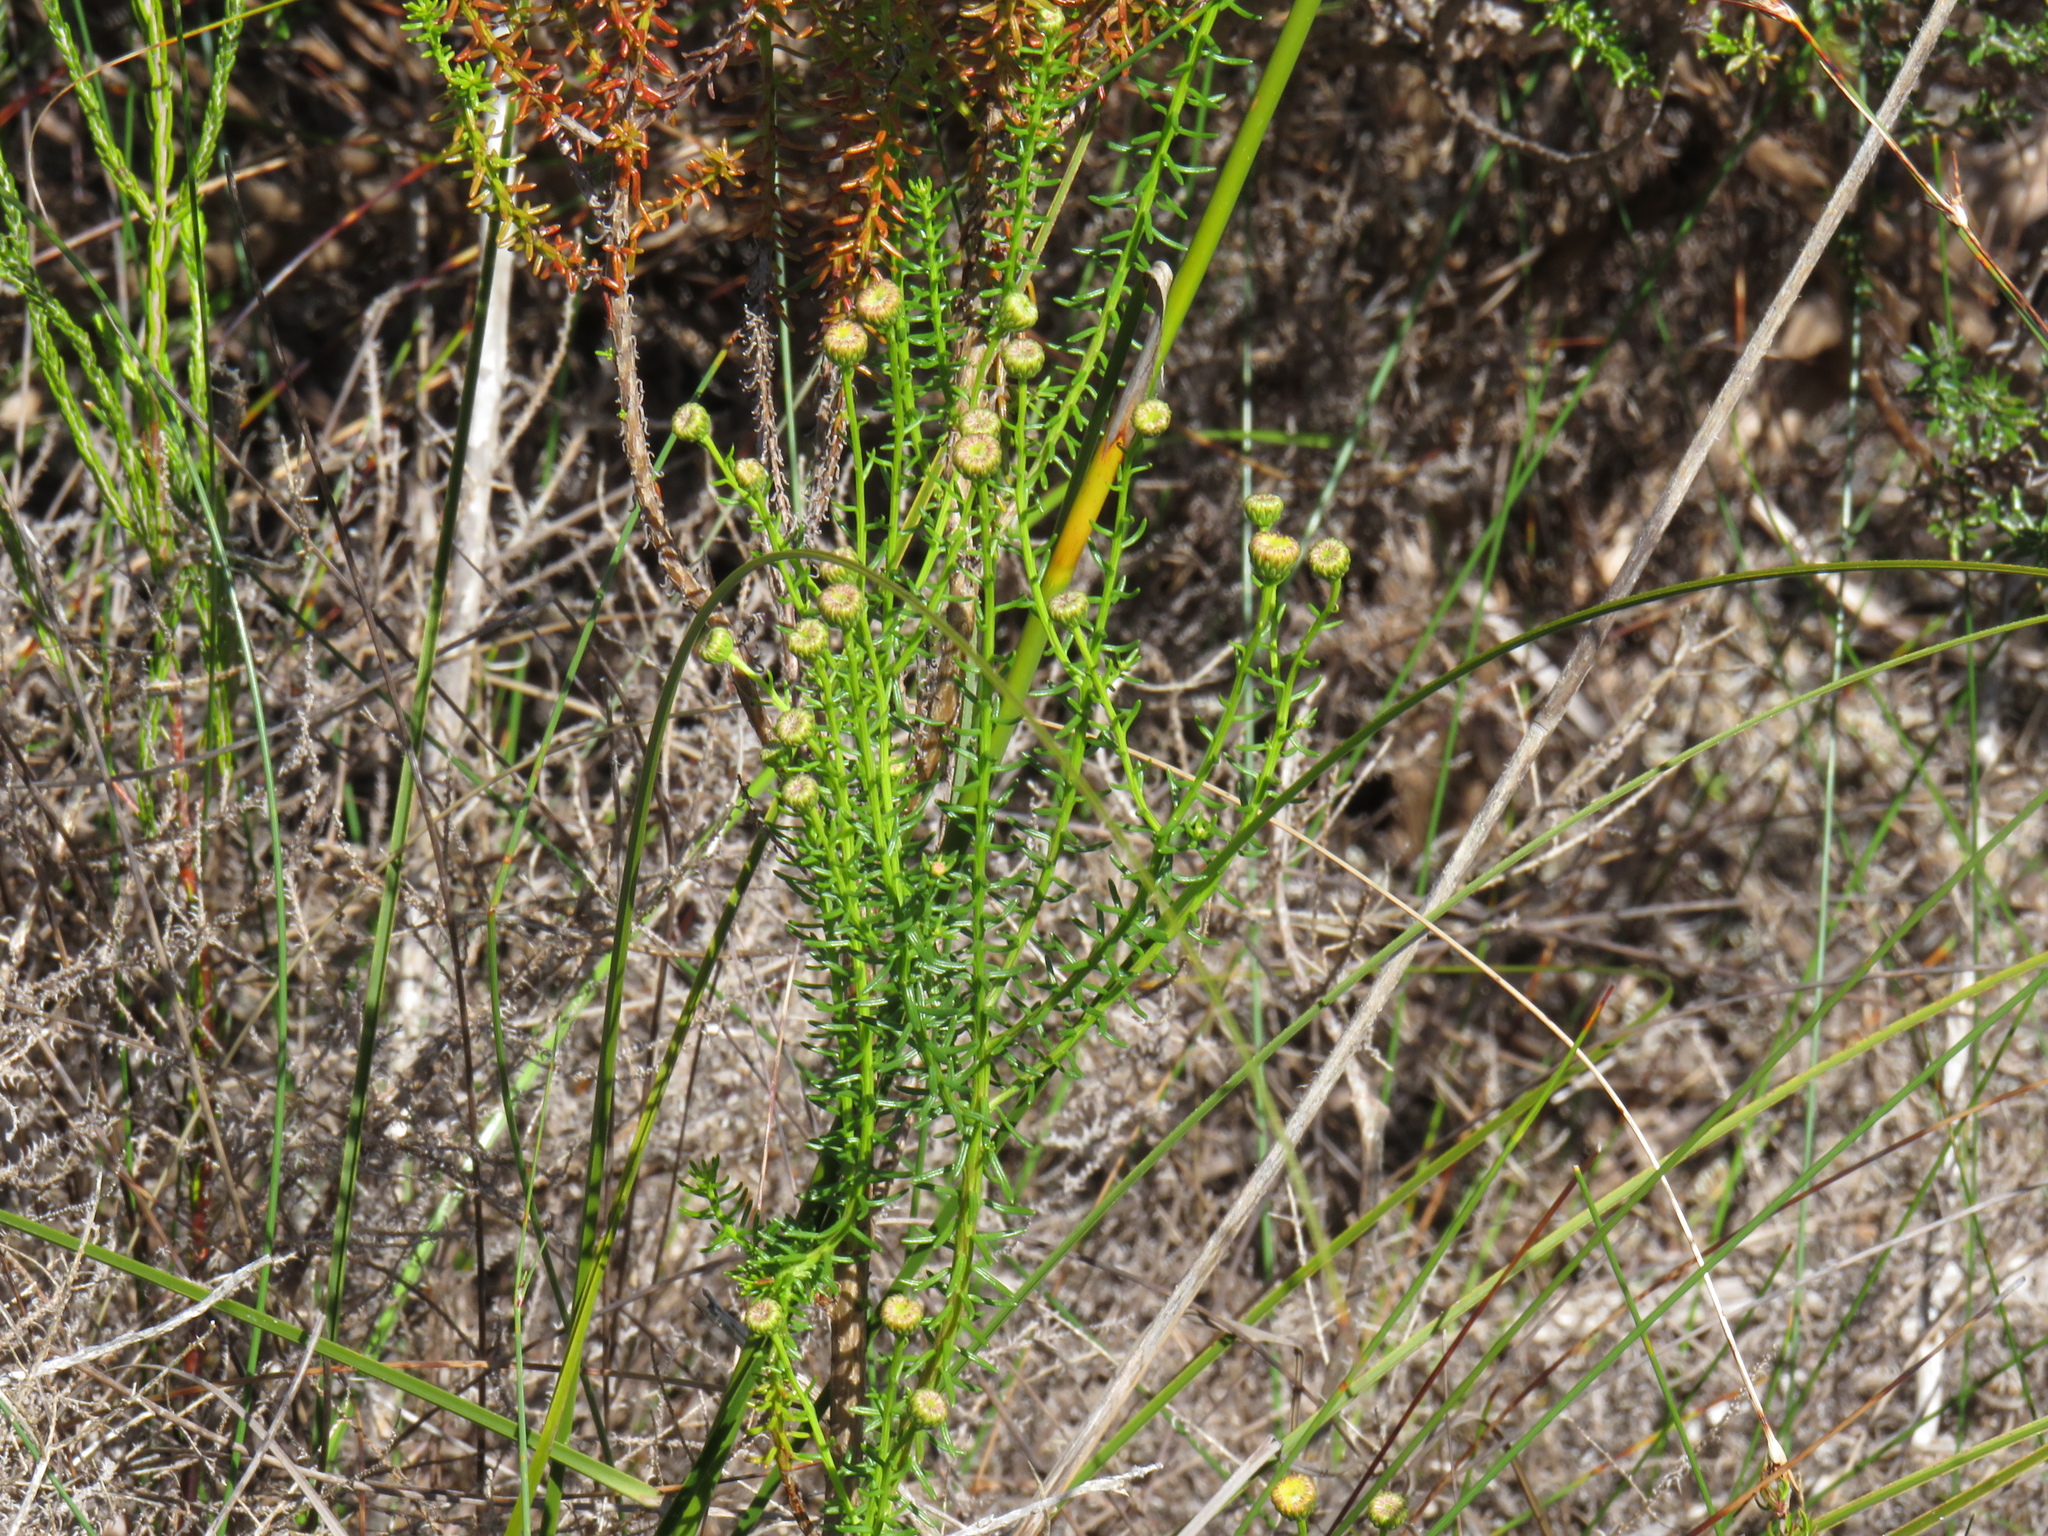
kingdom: Plantae
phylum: Tracheophyta
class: Magnoliopsida
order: Asterales
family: Asteraceae
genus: Chrysocoma
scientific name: Chrysocoma cernua
